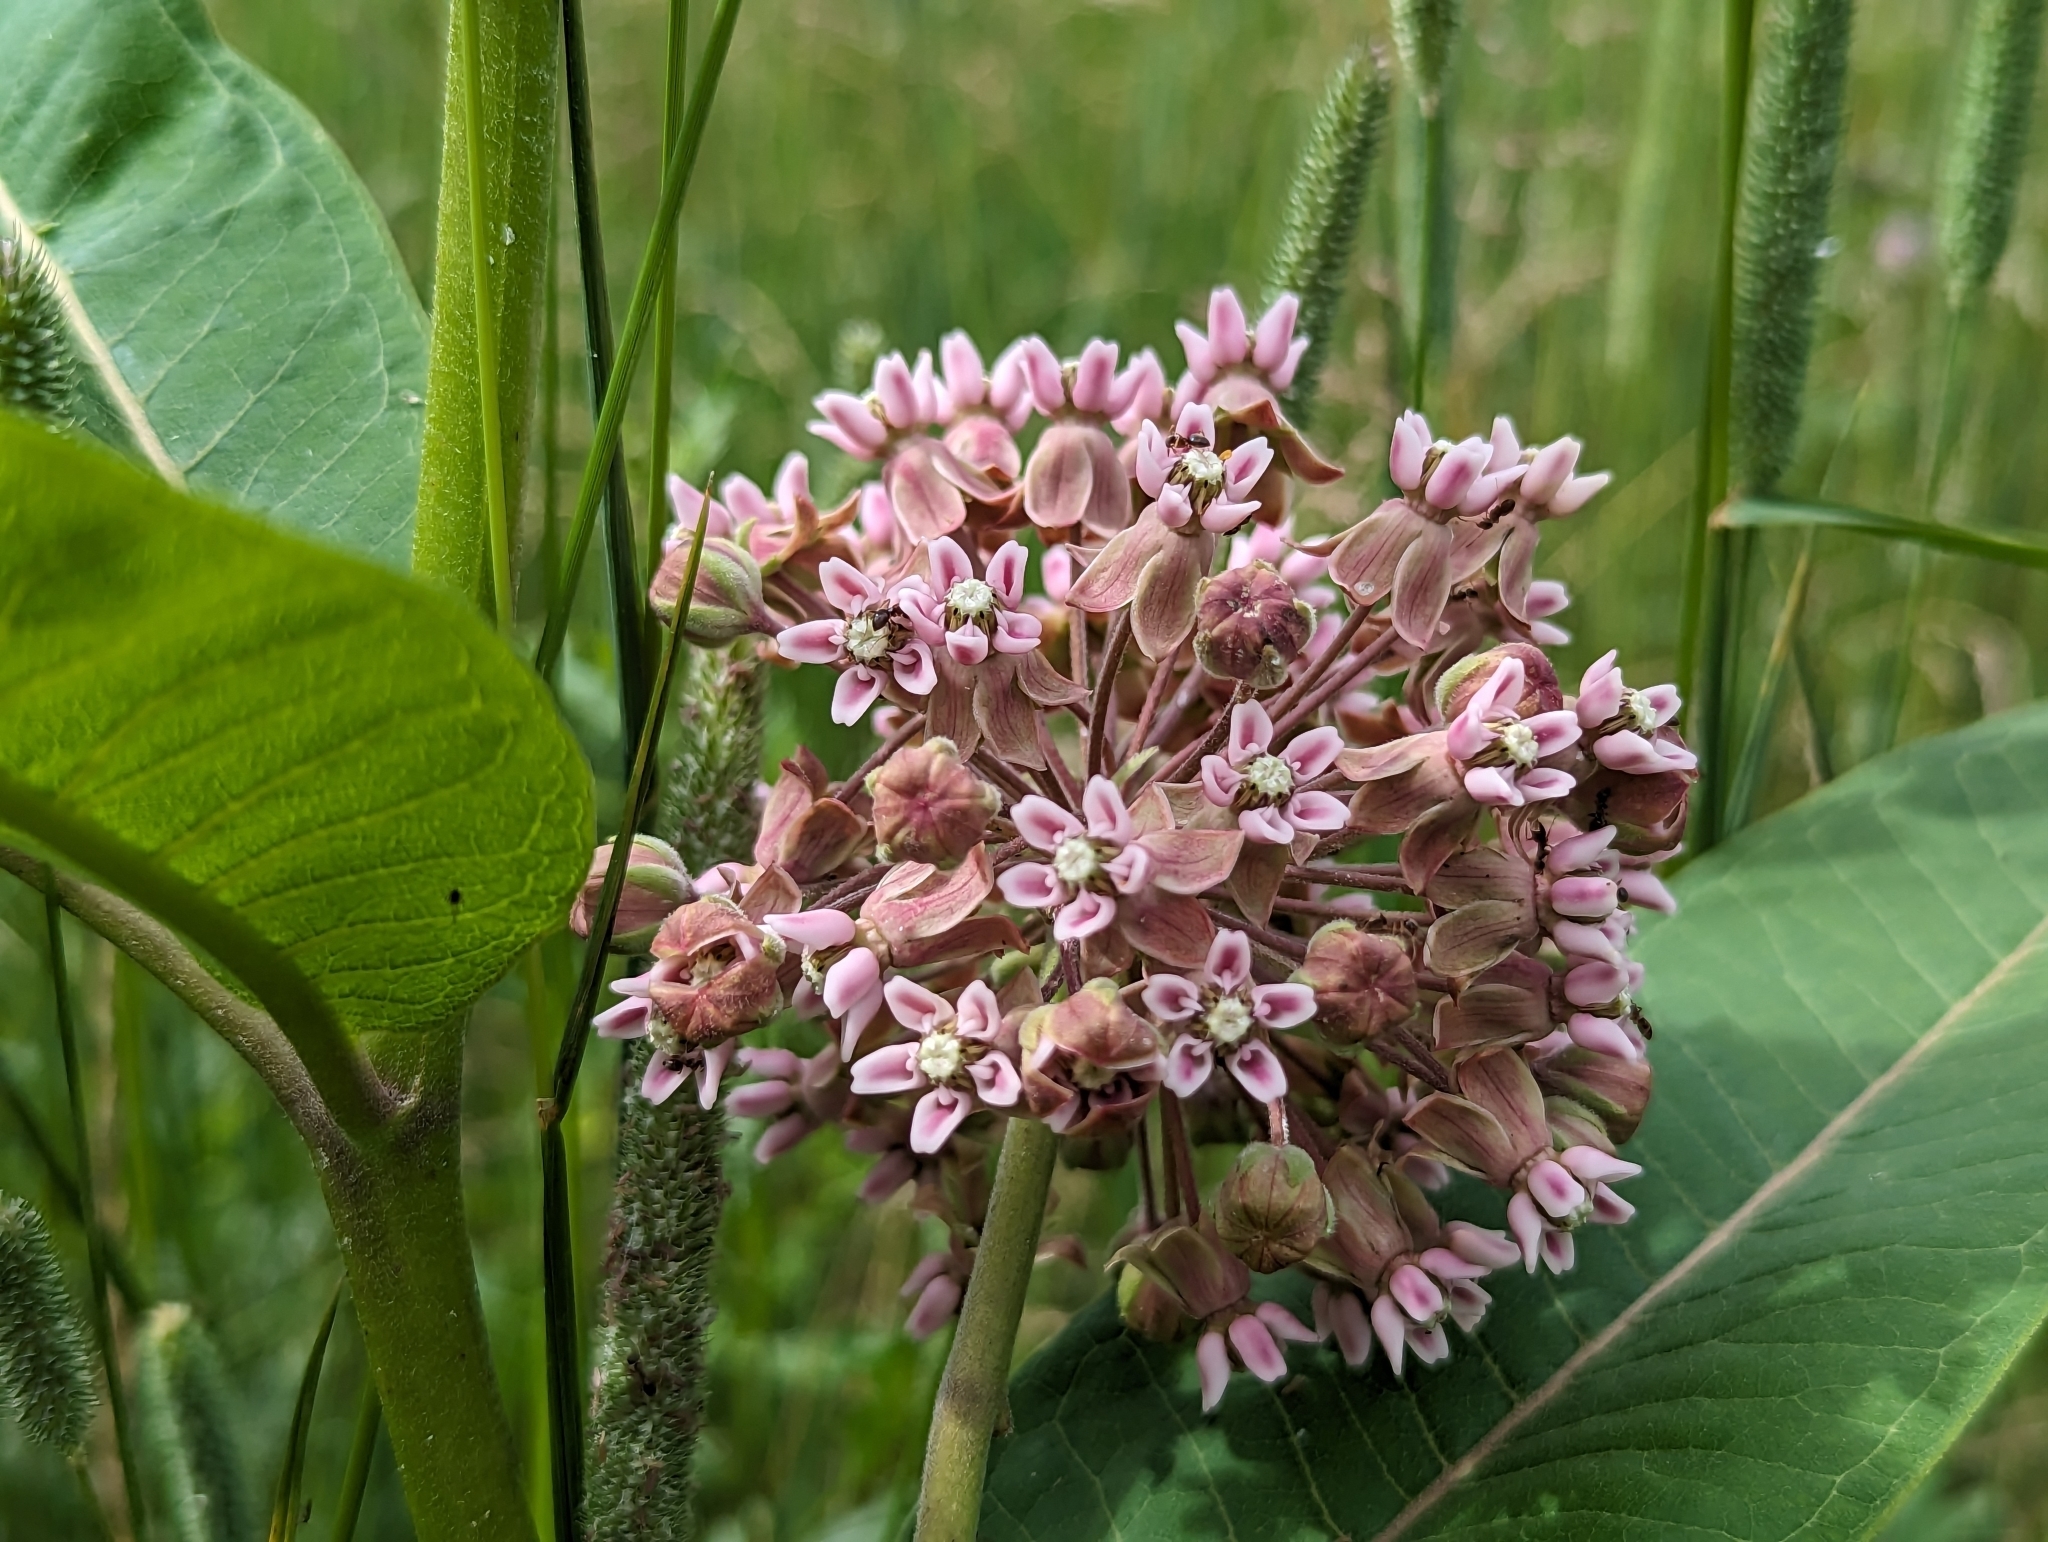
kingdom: Plantae
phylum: Tracheophyta
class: Magnoliopsida
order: Gentianales
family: Apocynaceae
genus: Asclepias
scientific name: Asclepias syriaca
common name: Common milkweed
